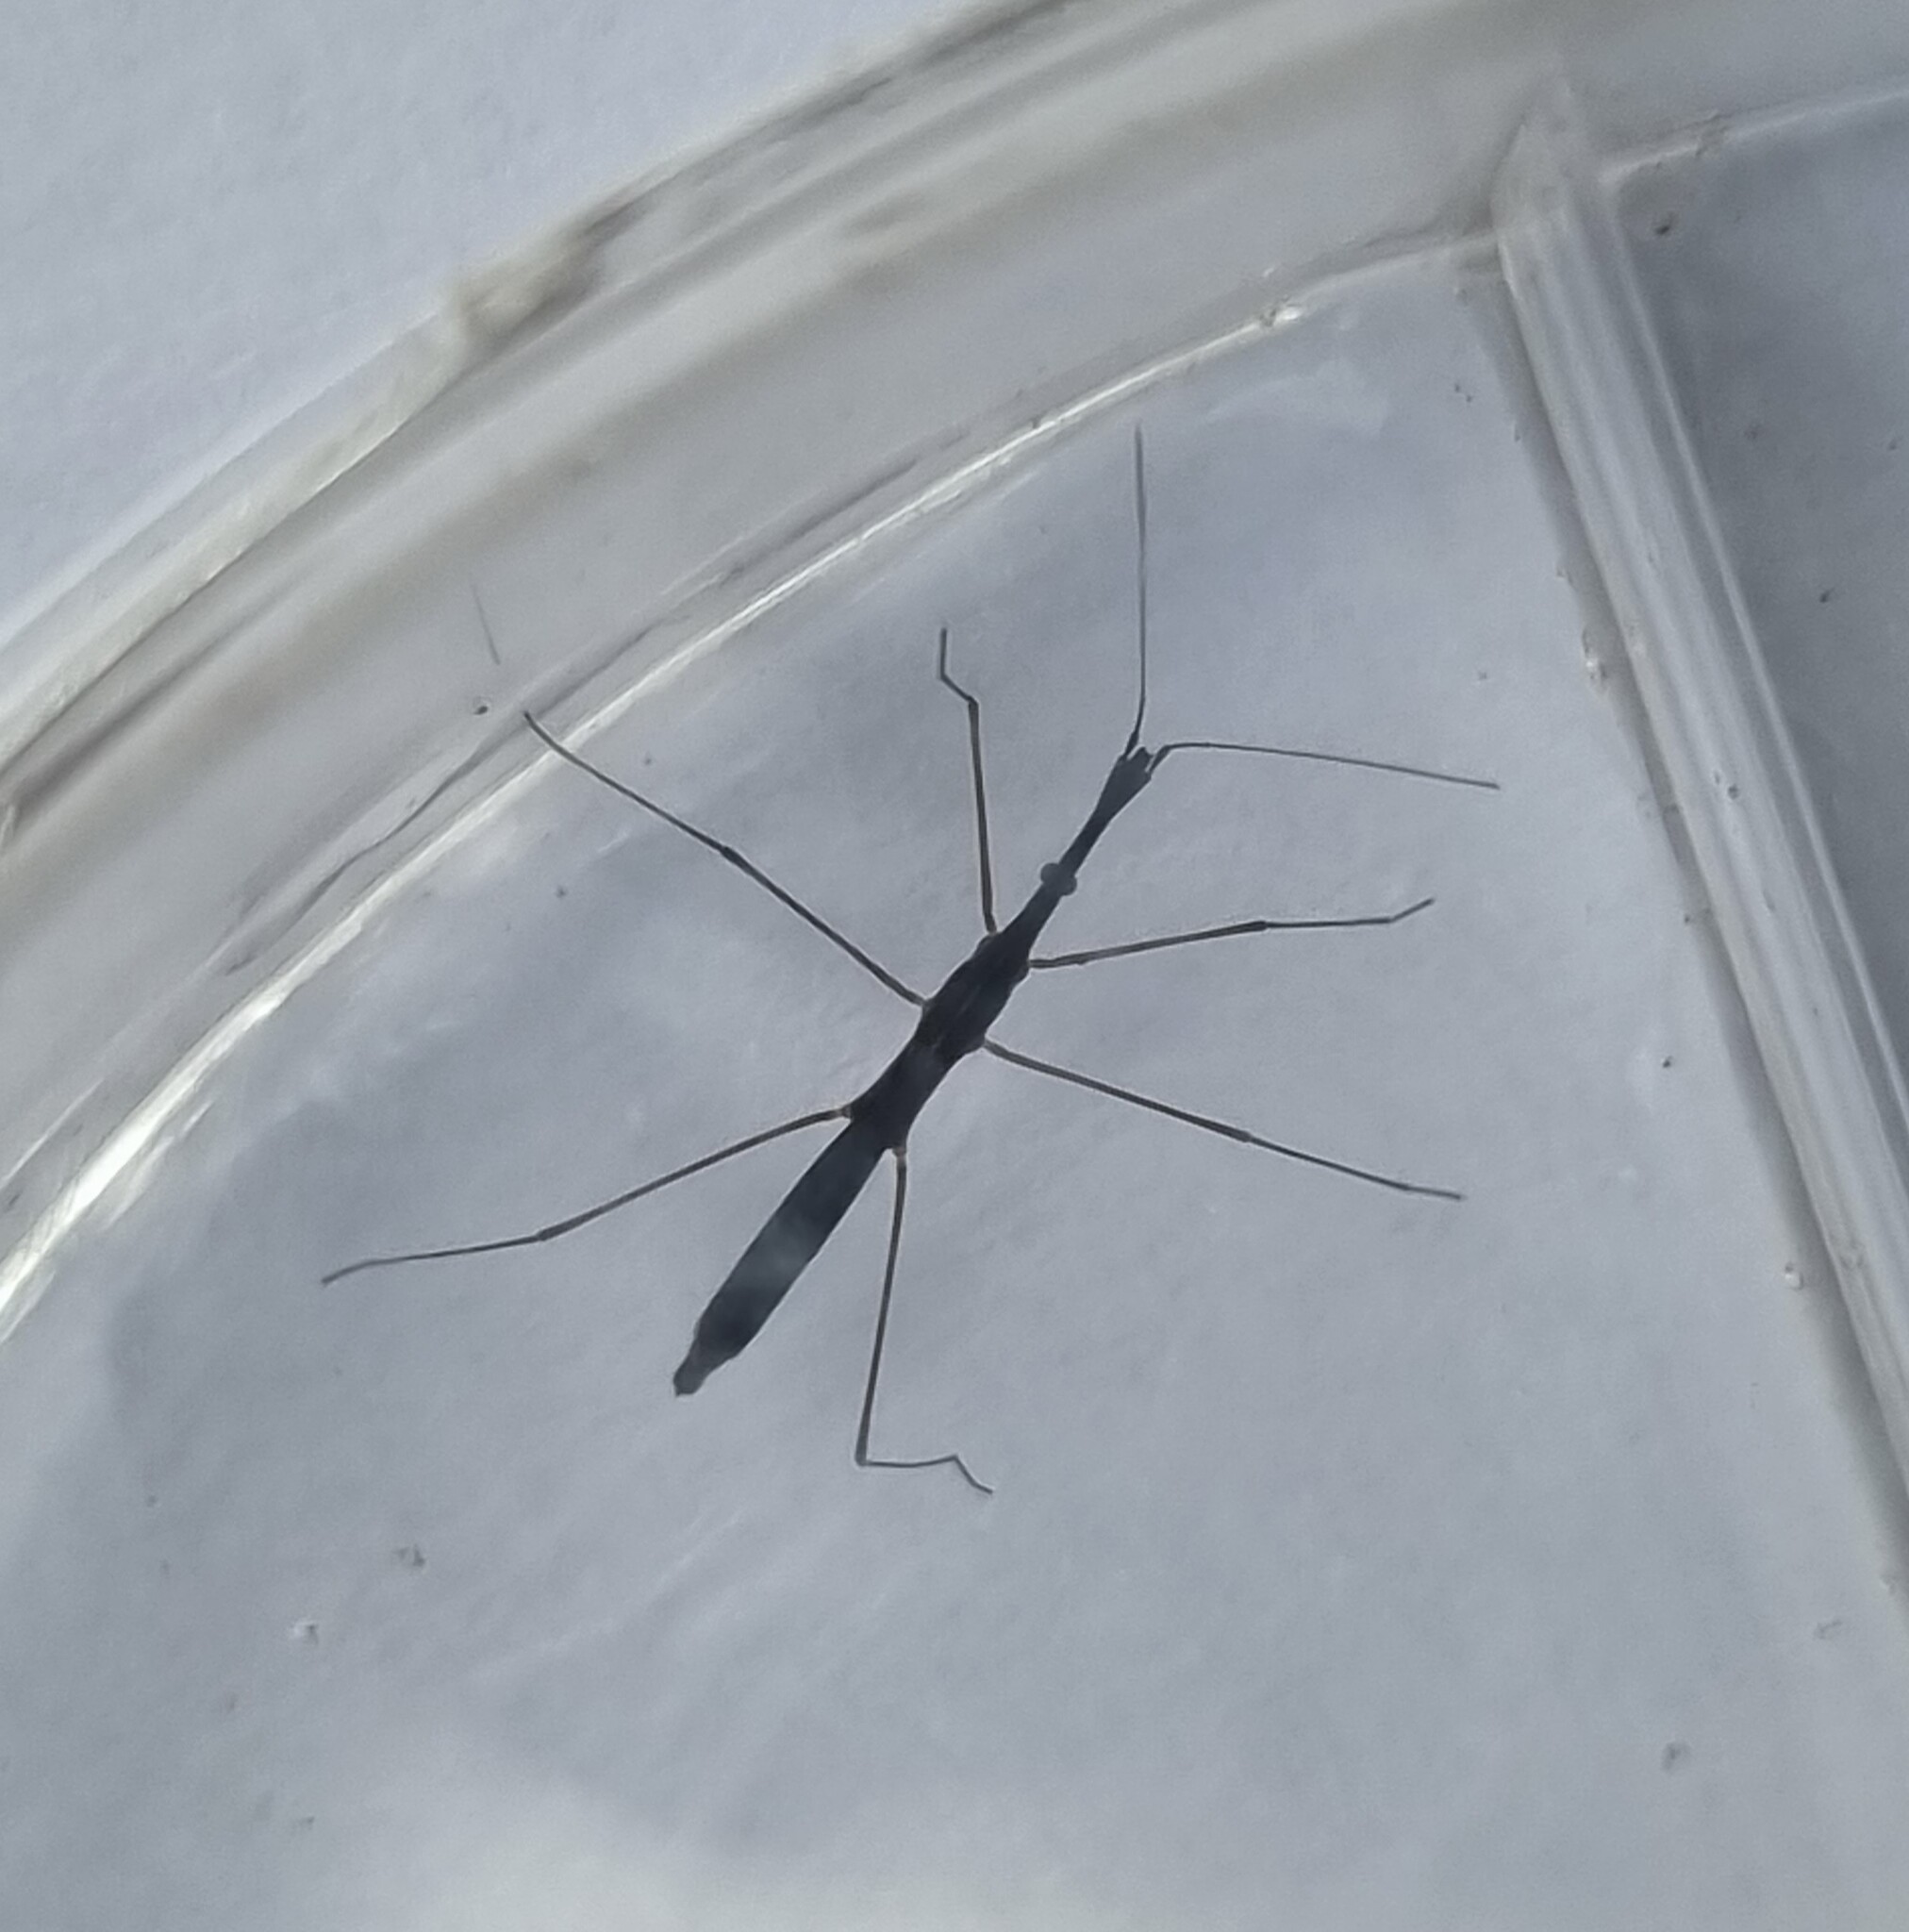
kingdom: Animalia
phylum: Arthropoda
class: Insecta
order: Hemiptera
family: Hydrometridae
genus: Hydrometra
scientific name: Hydrometra stagnorum
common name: Water measurer
